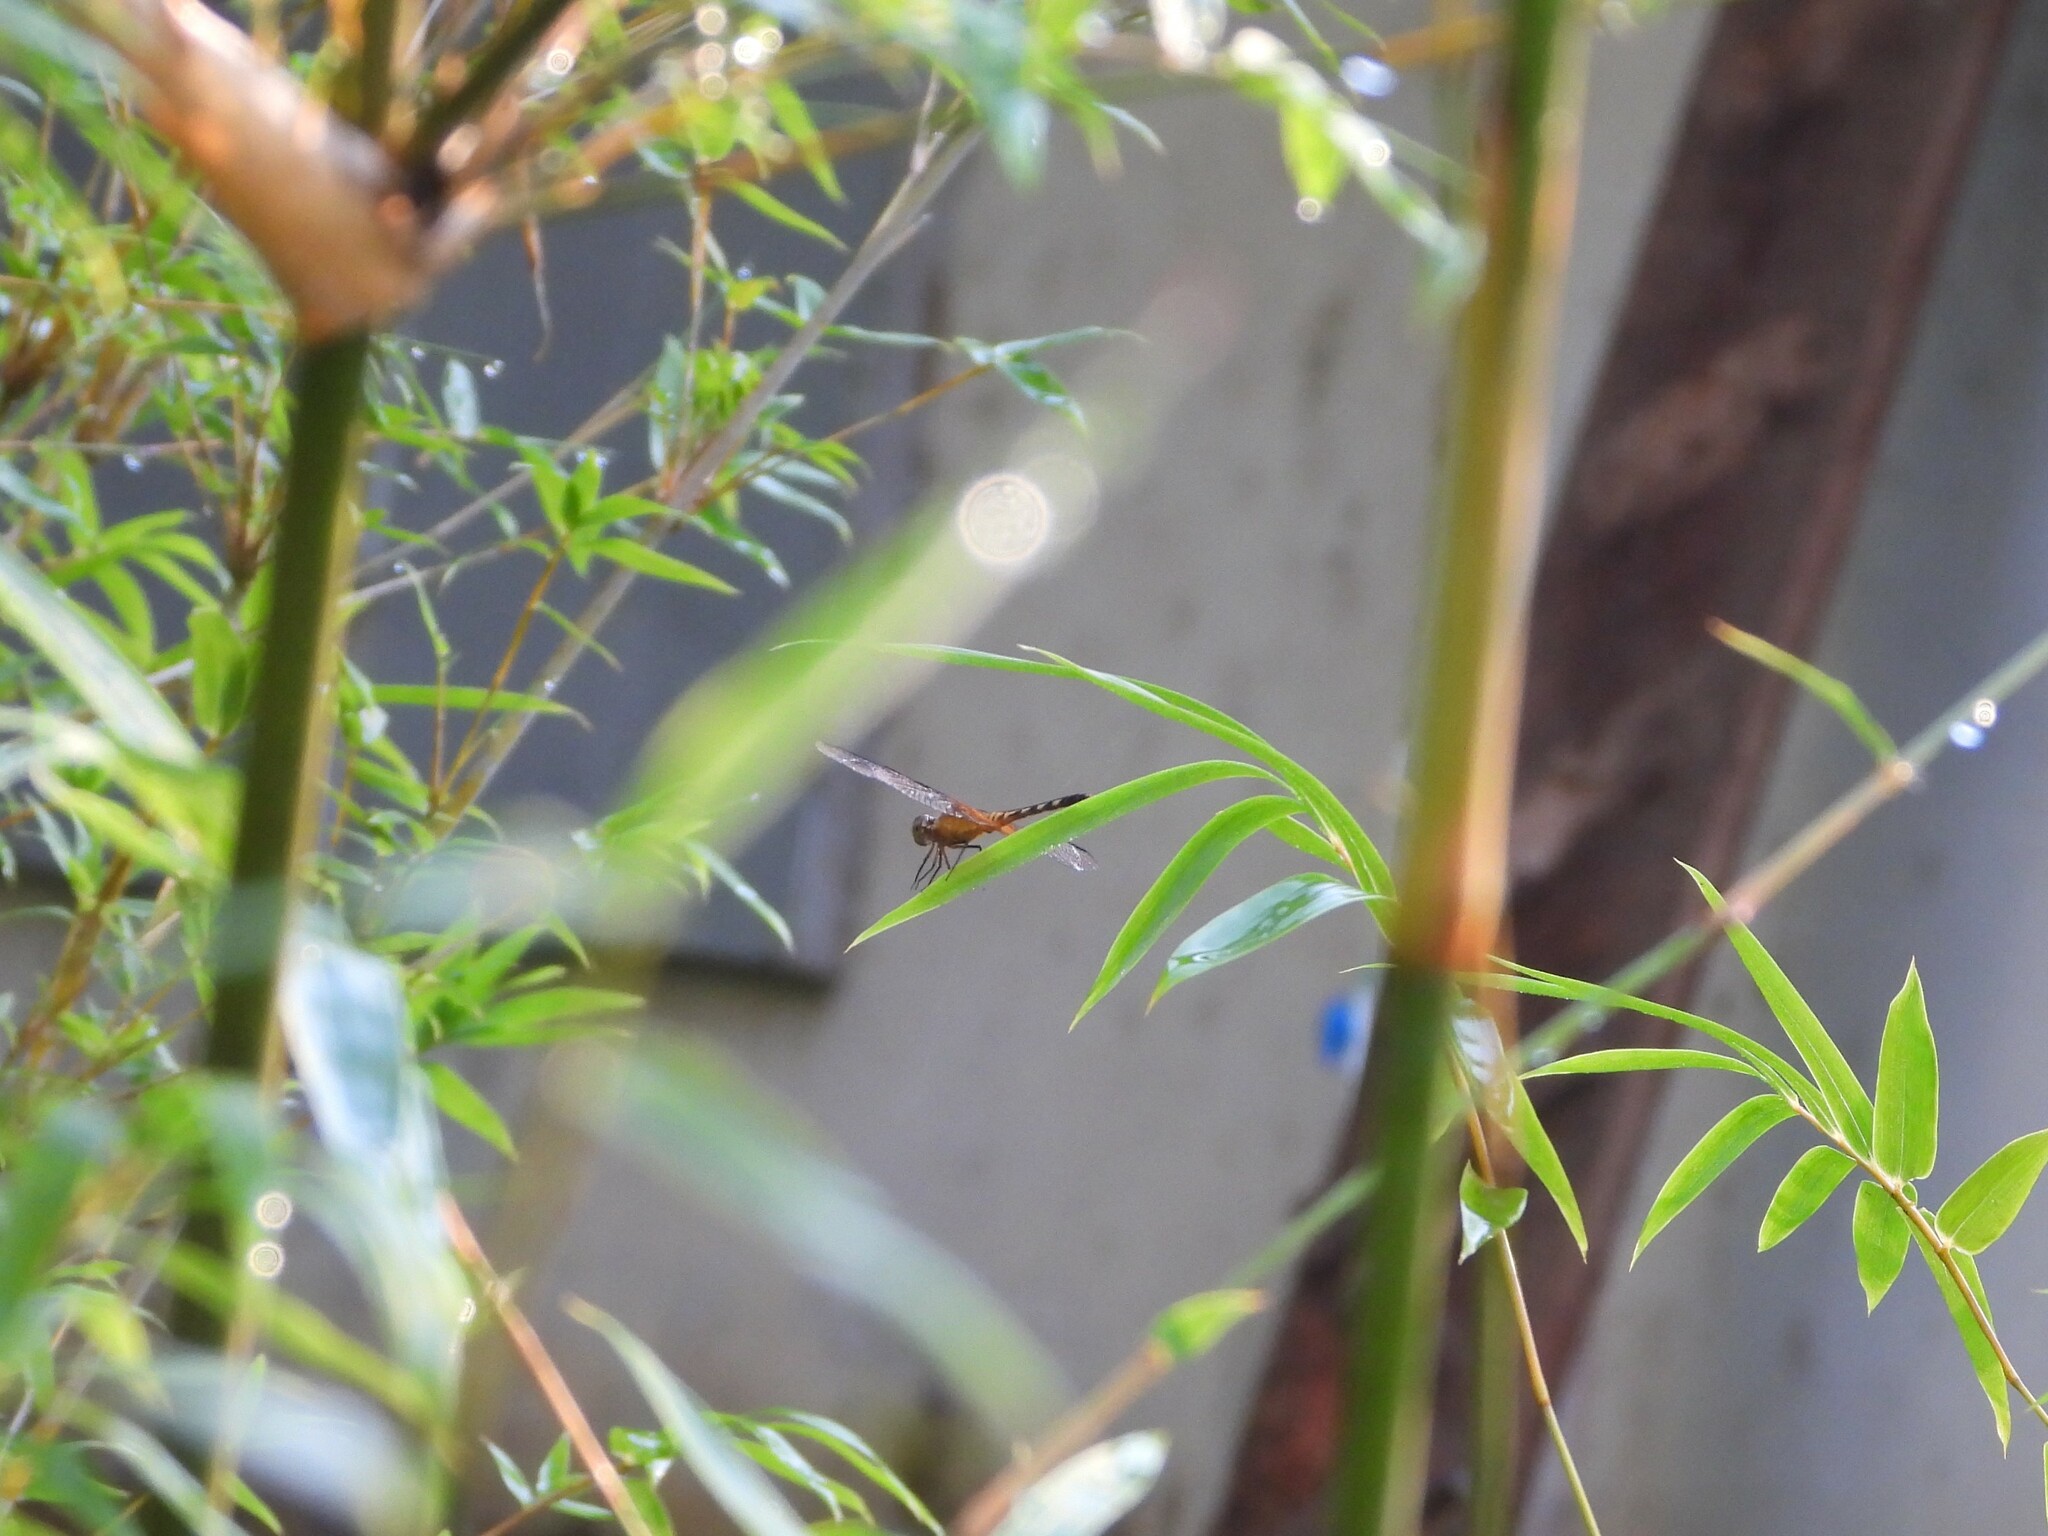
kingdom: Animalia
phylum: Arthropoda
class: Insecta
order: Odonata
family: Libellulidae
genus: Erythrodiplax
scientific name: Erythrodiplax fervida
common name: Red-mantled dragonlet
